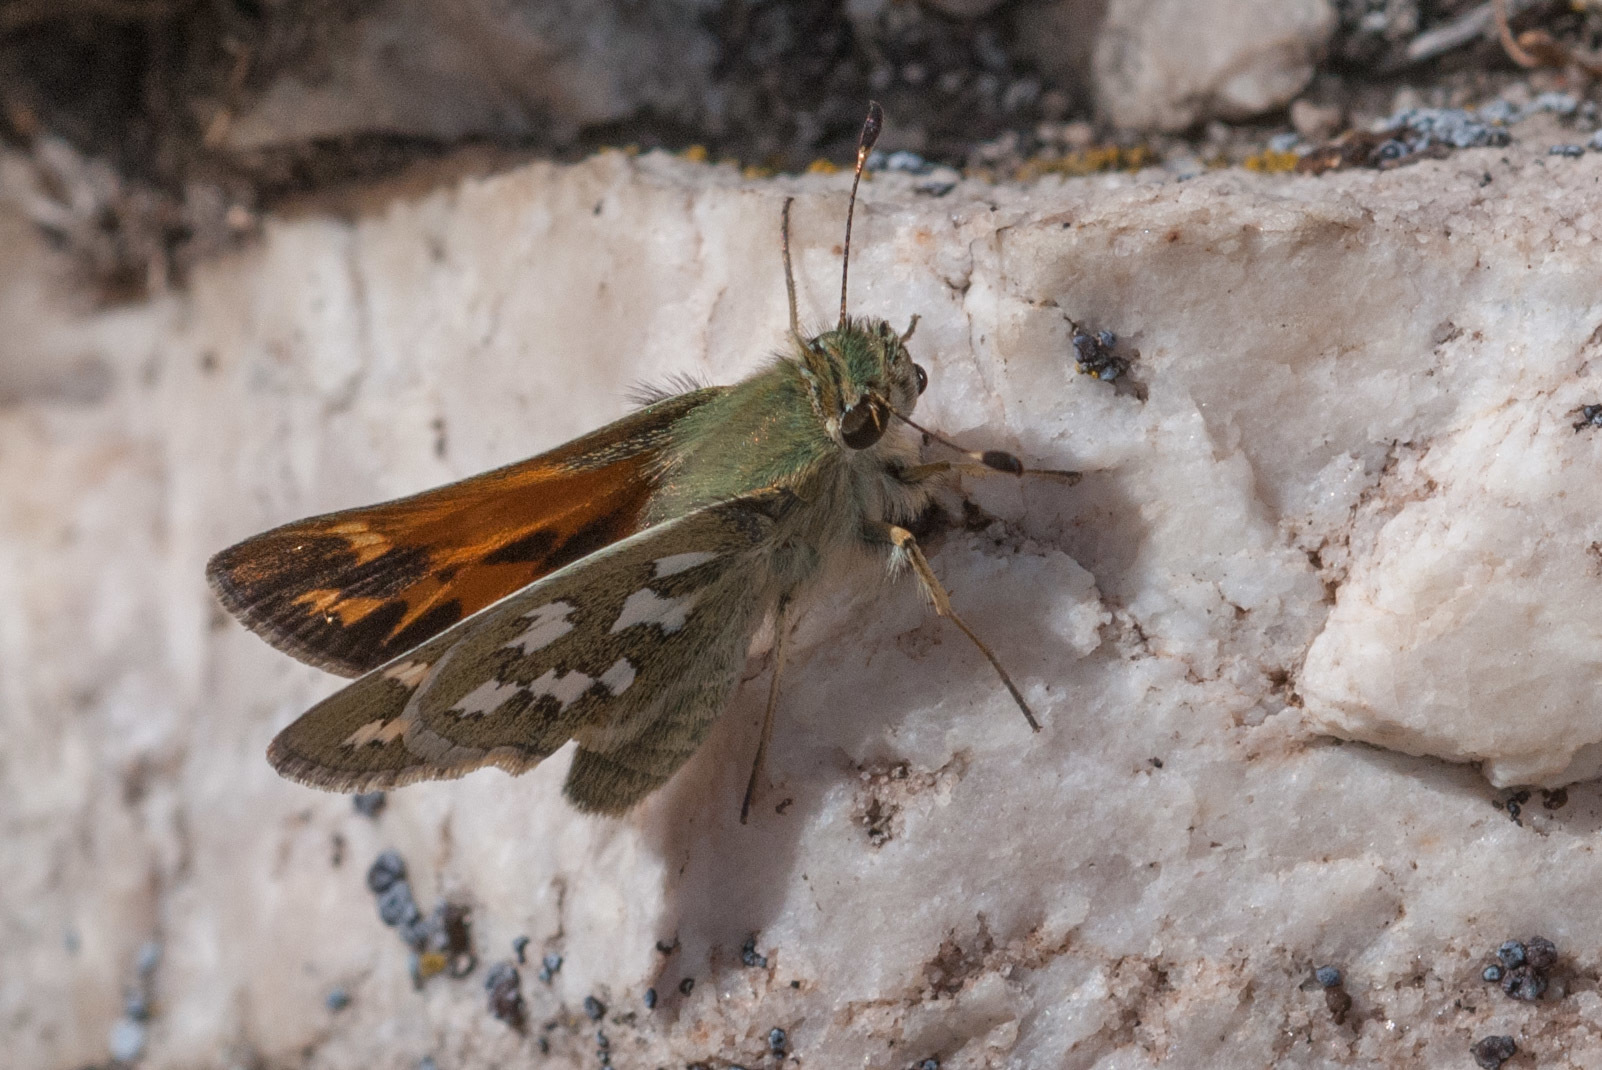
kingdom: Animalia
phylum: Arthropoda
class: Insecta
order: Lepidoptera
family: Hesperiidae
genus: Hesperia
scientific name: Hesperia juba
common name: Juba skipper
